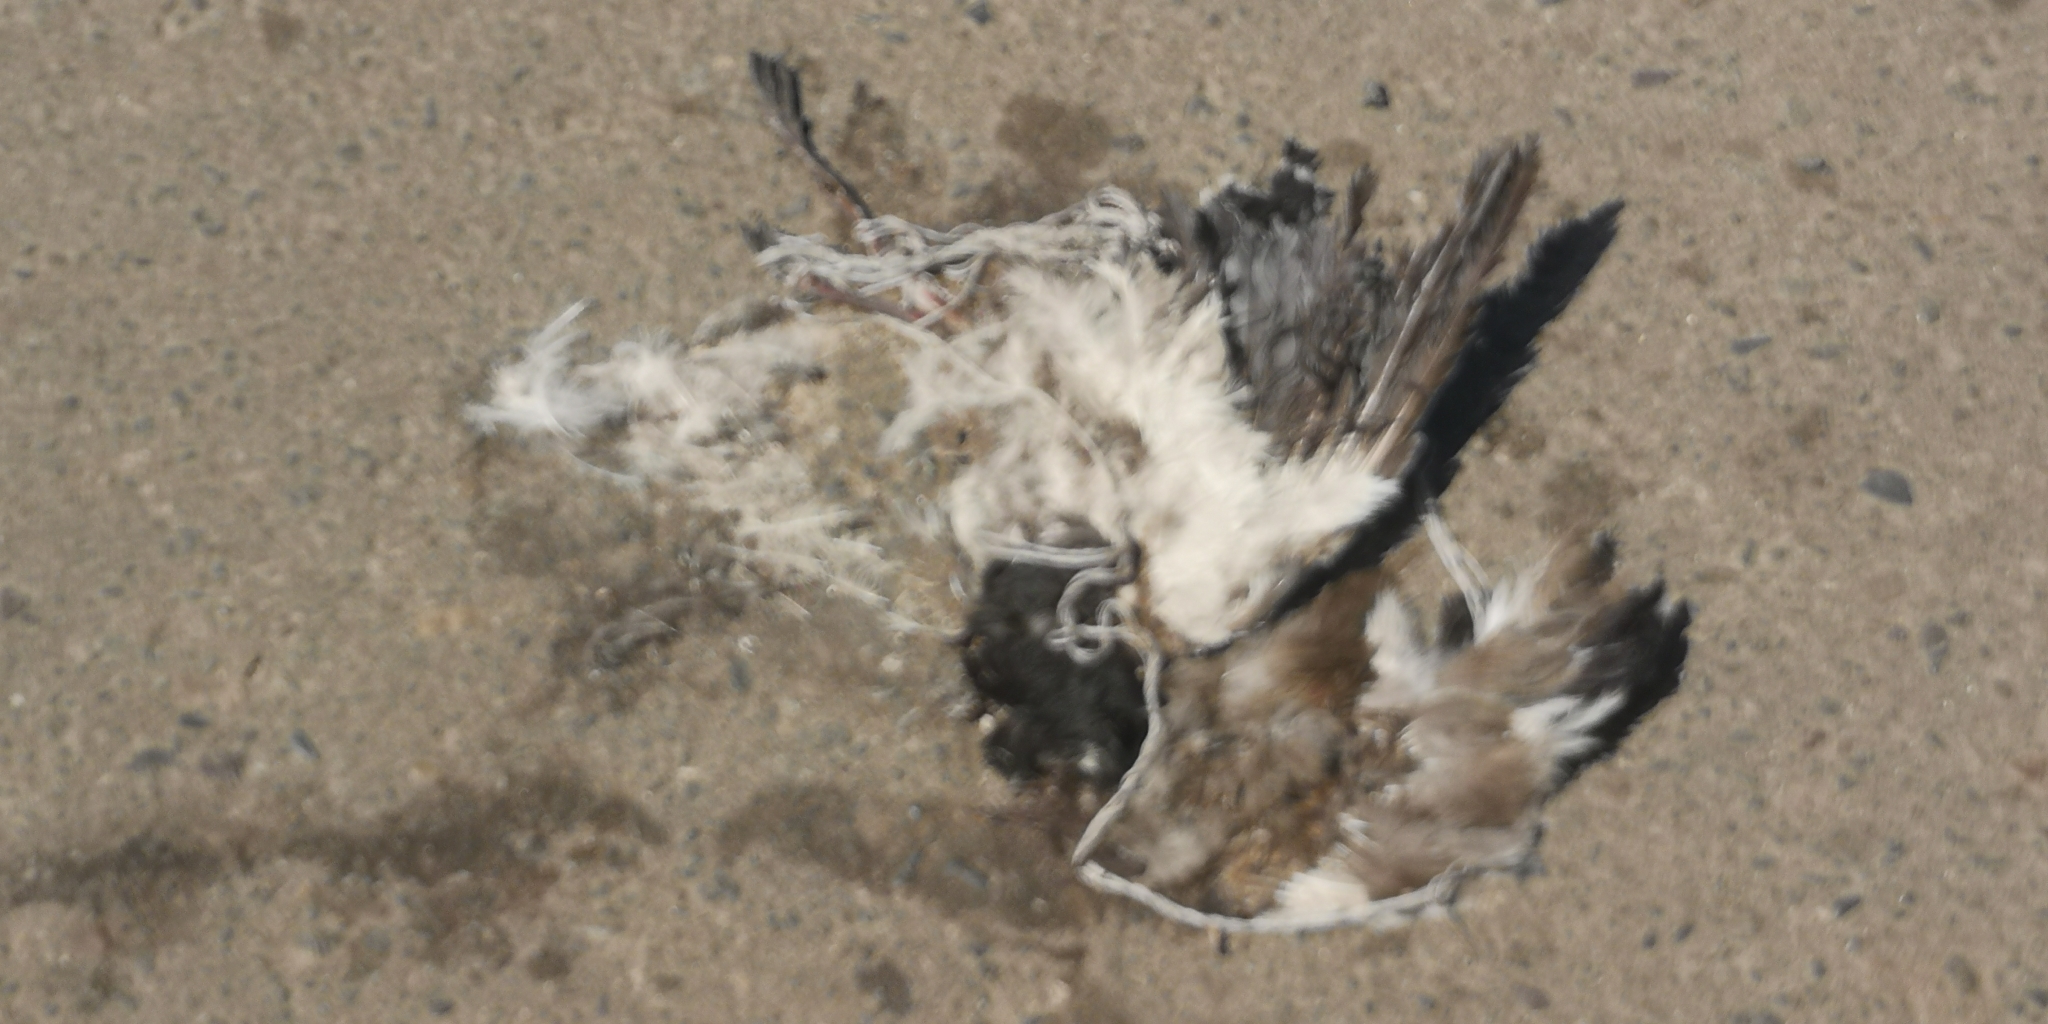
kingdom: Animalia
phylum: Chordata
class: Aves
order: Charadriiformes
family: Charadriidae
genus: Vanellus
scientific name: Vanellus chilensis
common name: Southern lapwing
